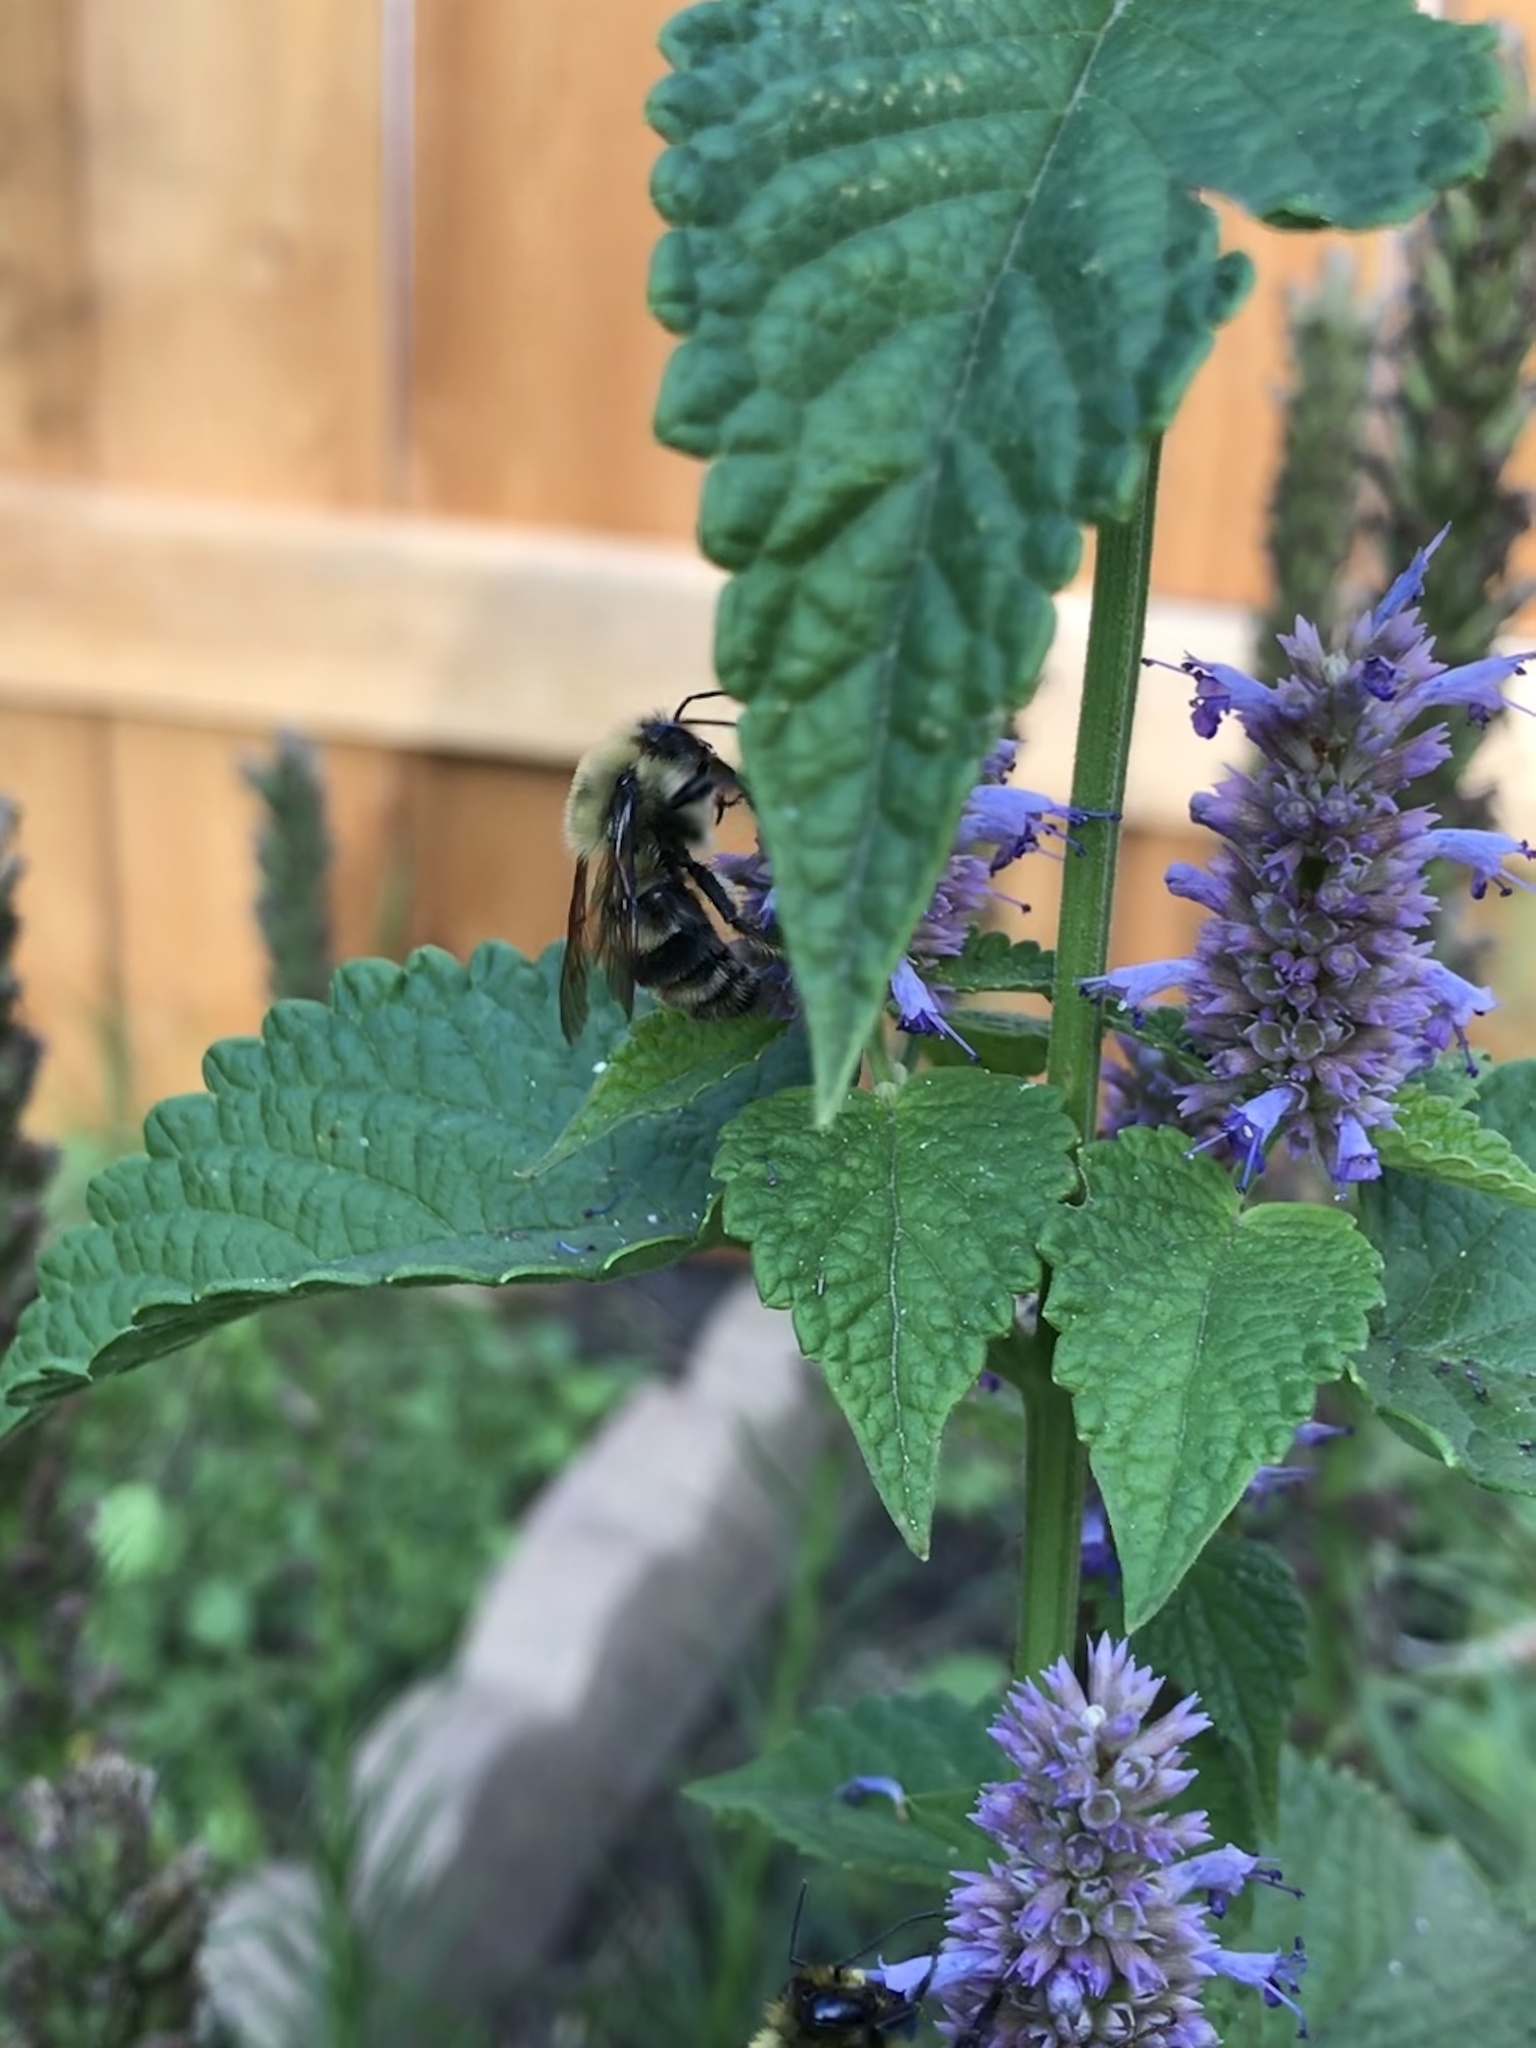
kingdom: Animalia
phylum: Arthropoda
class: Insecta
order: Hymenoptera
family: Apidae
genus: Bombus
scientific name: Bombus bimaculatus
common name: Two-spotted bumble bee
